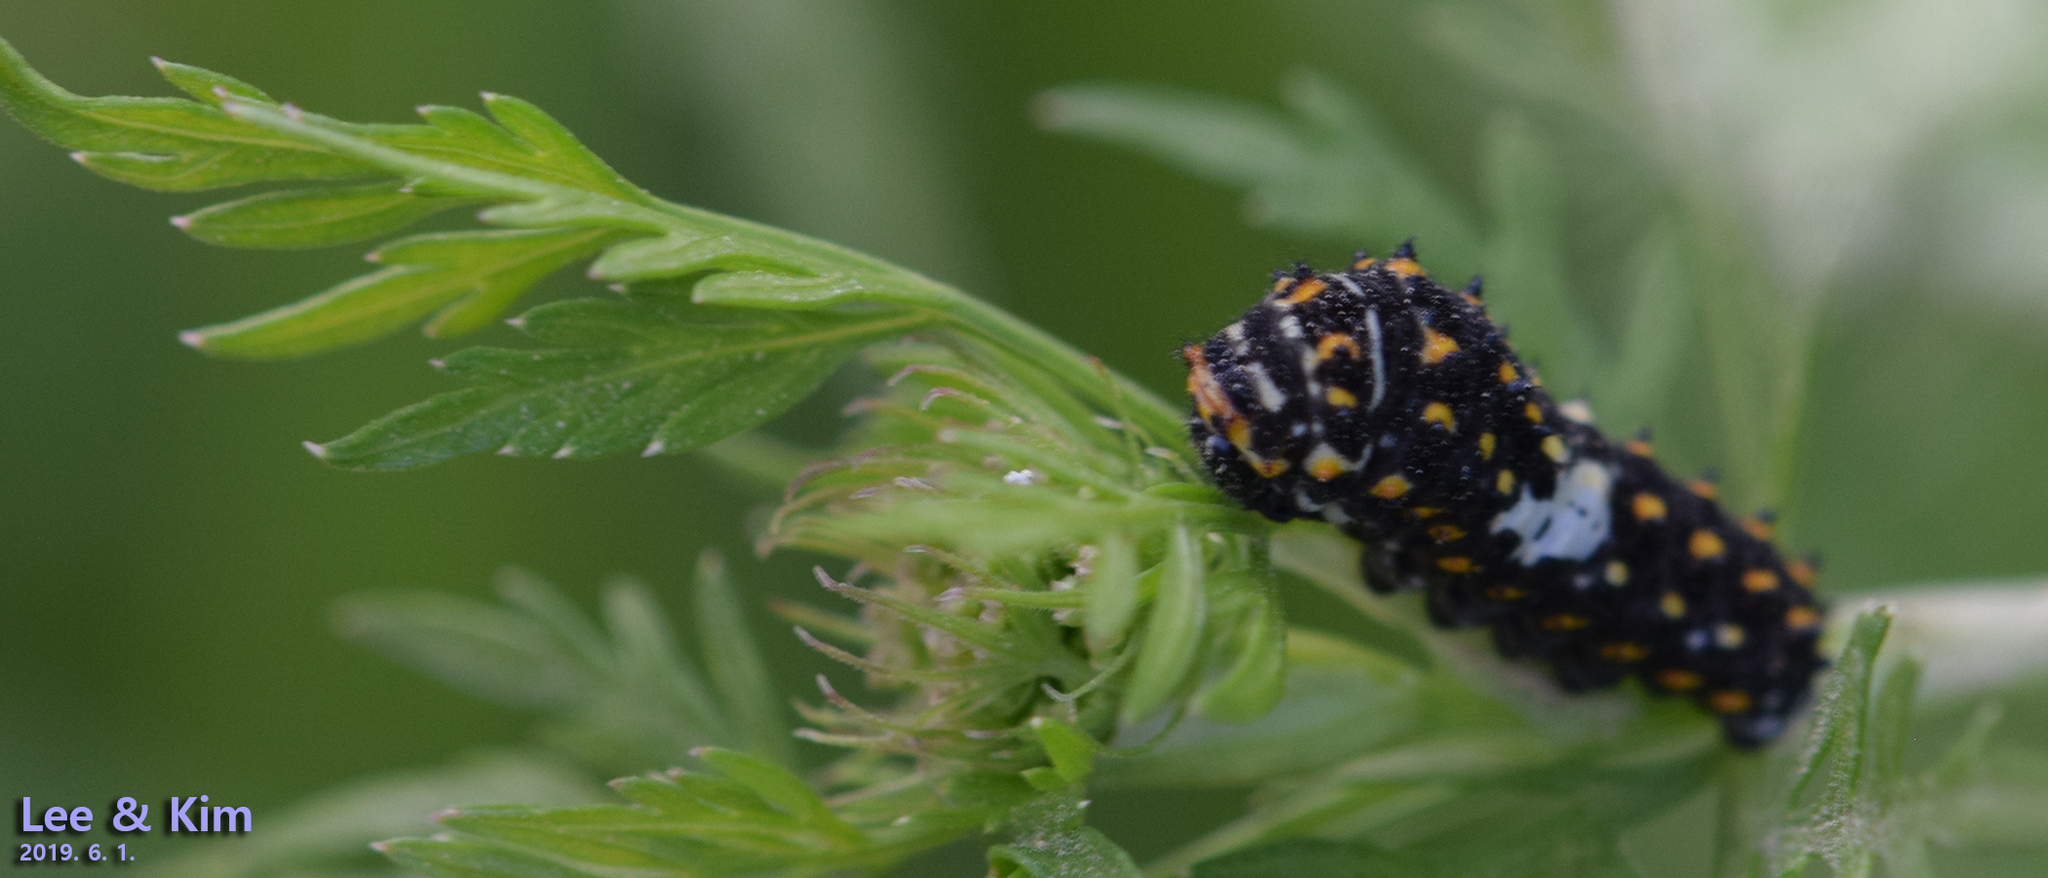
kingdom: Animalia
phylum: Arthropoda
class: Insecta
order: Lepidoptera
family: Papilionidae
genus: Papilio
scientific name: Papilio machaon
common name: Swallowtail
